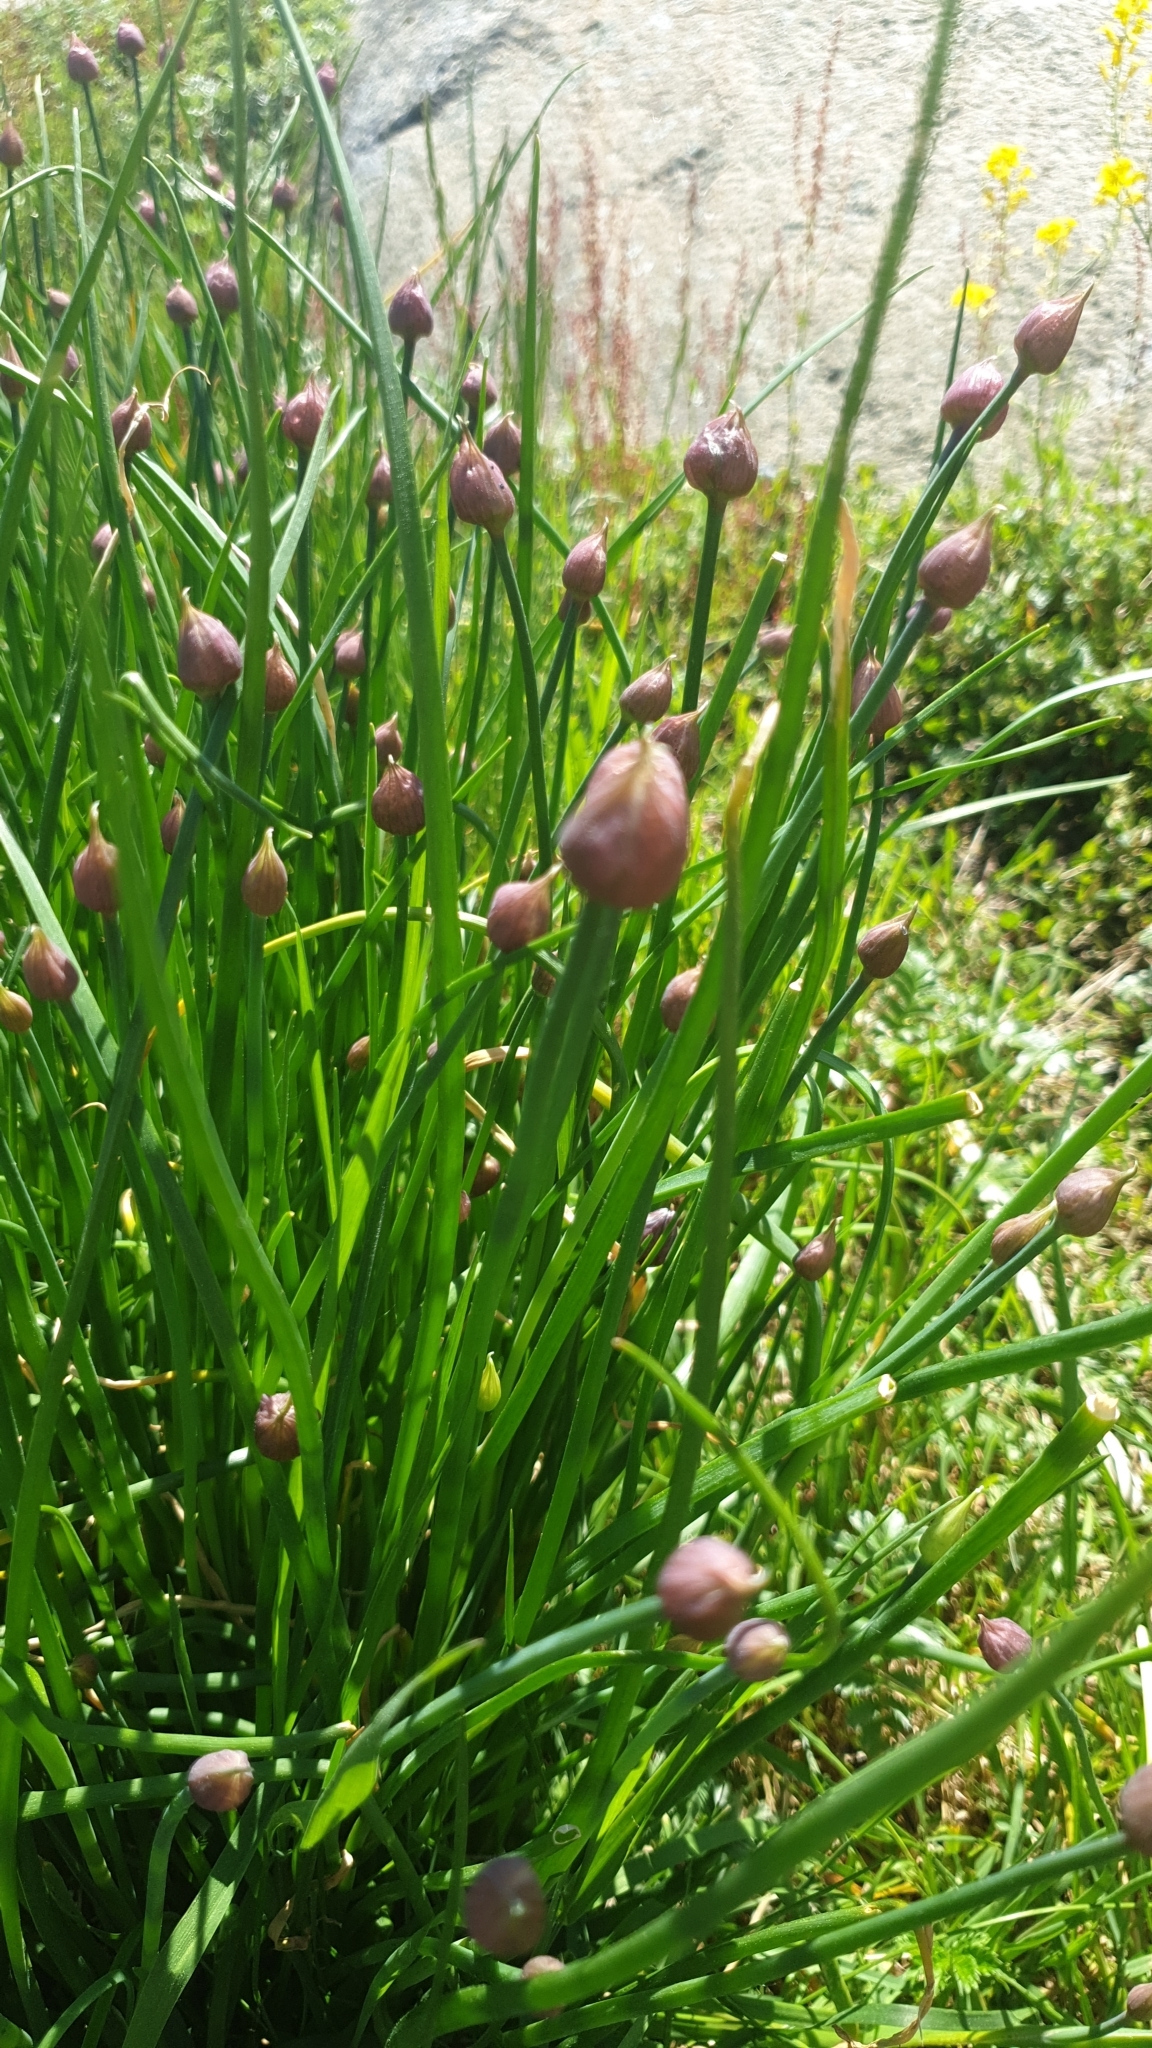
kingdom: Plantae
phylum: Tracheophyta
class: Liliopsida
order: Asparagales
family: Amaryllidaceae
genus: Allium
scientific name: Allium schoenoprasum
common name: Chives
